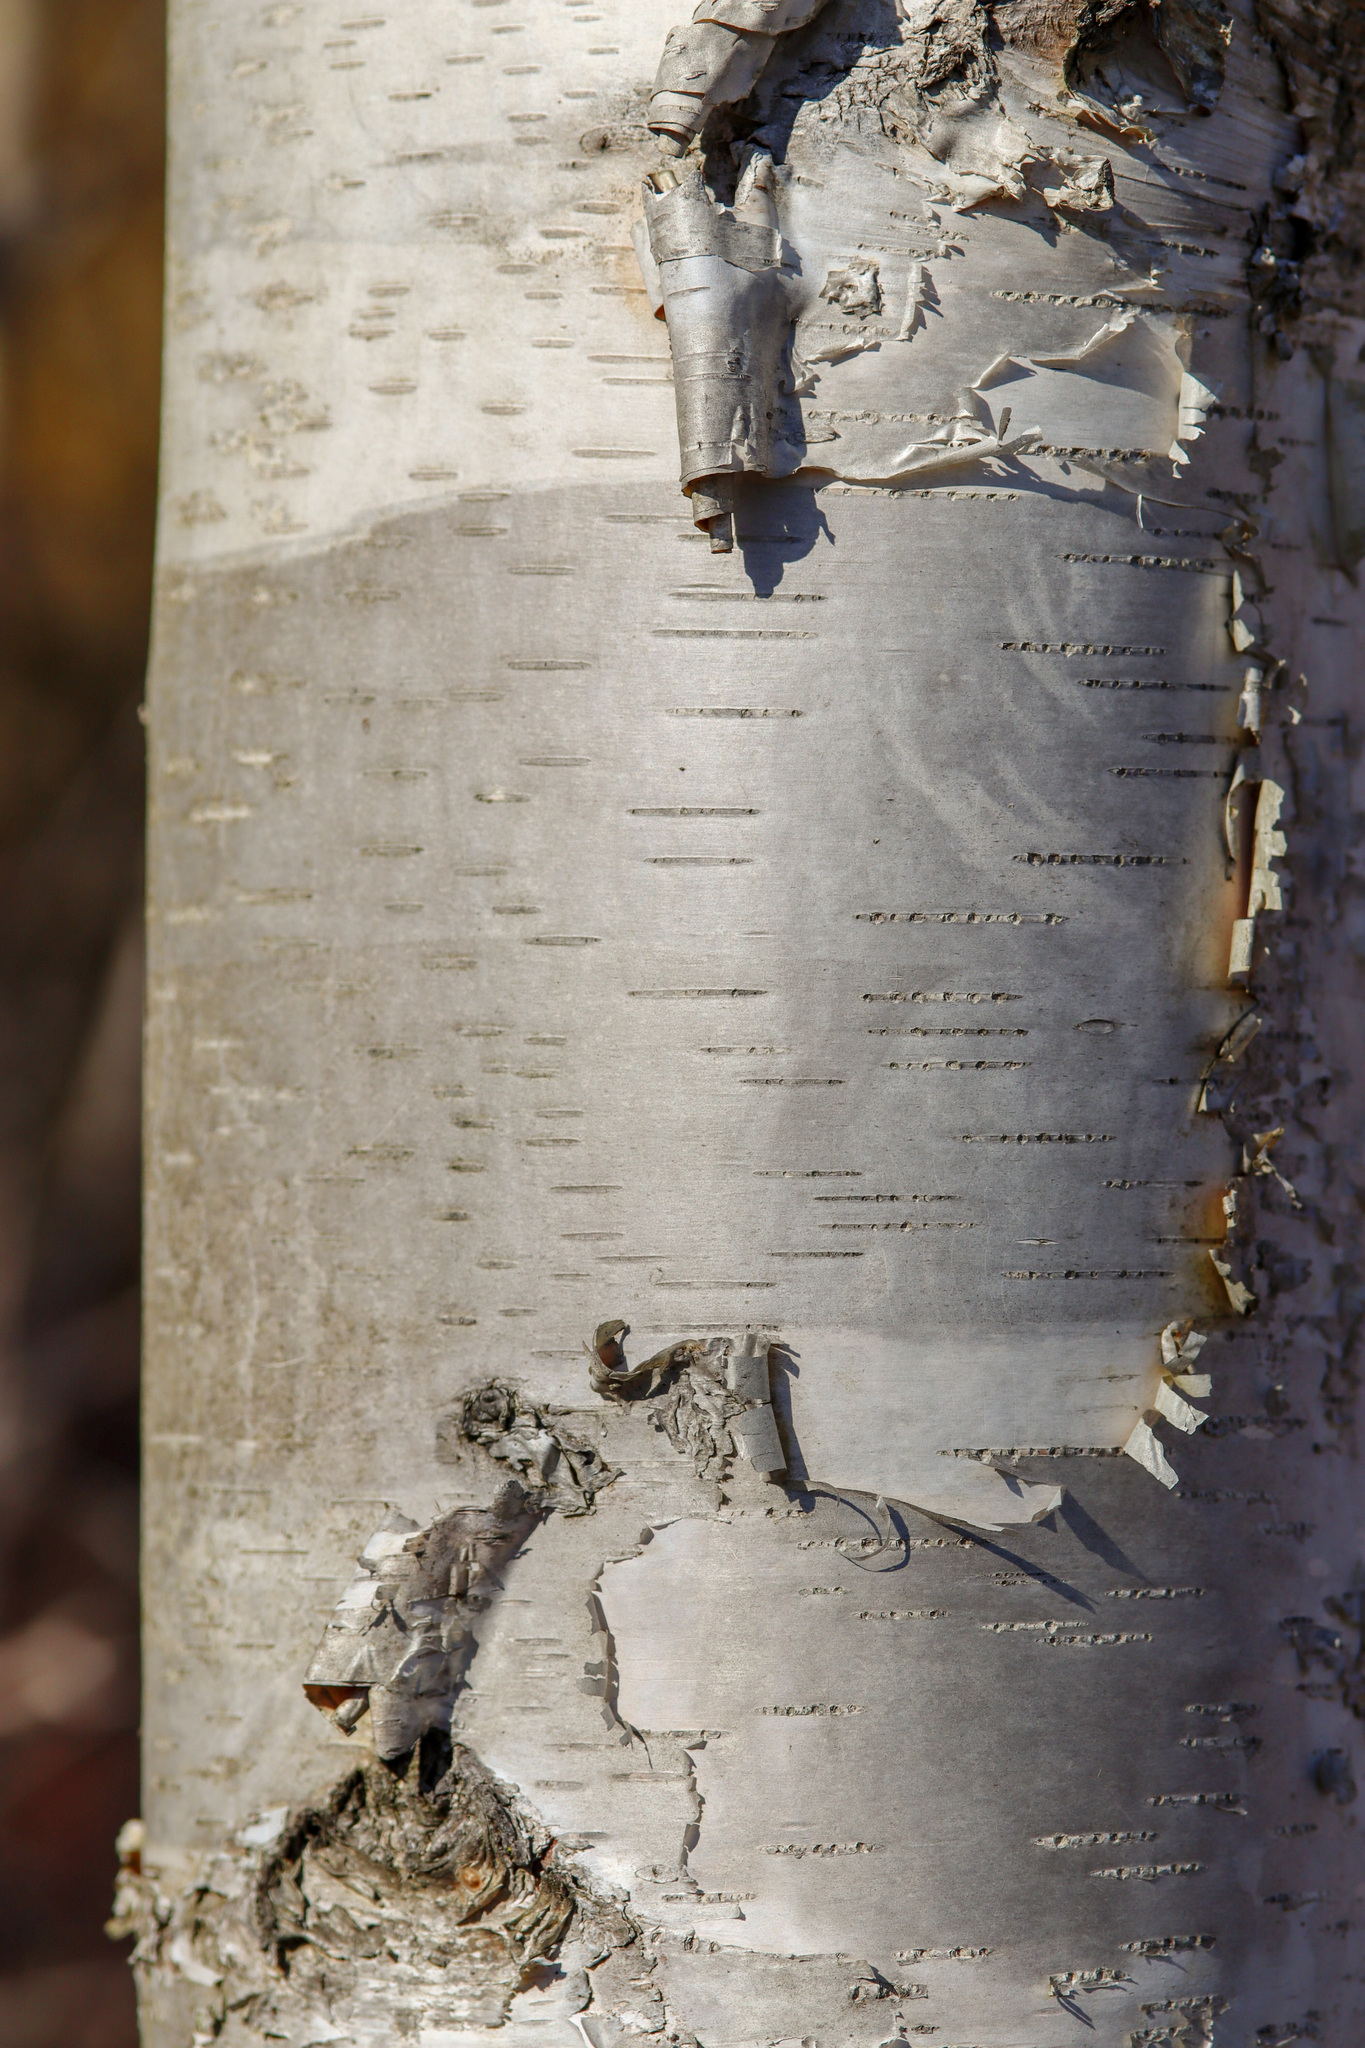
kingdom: Plantae
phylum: Tracheophyta
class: Magnoliopsida
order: Fagales
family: Betulaceae
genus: Betula
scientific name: Betula papyrifera
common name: Paper birch
